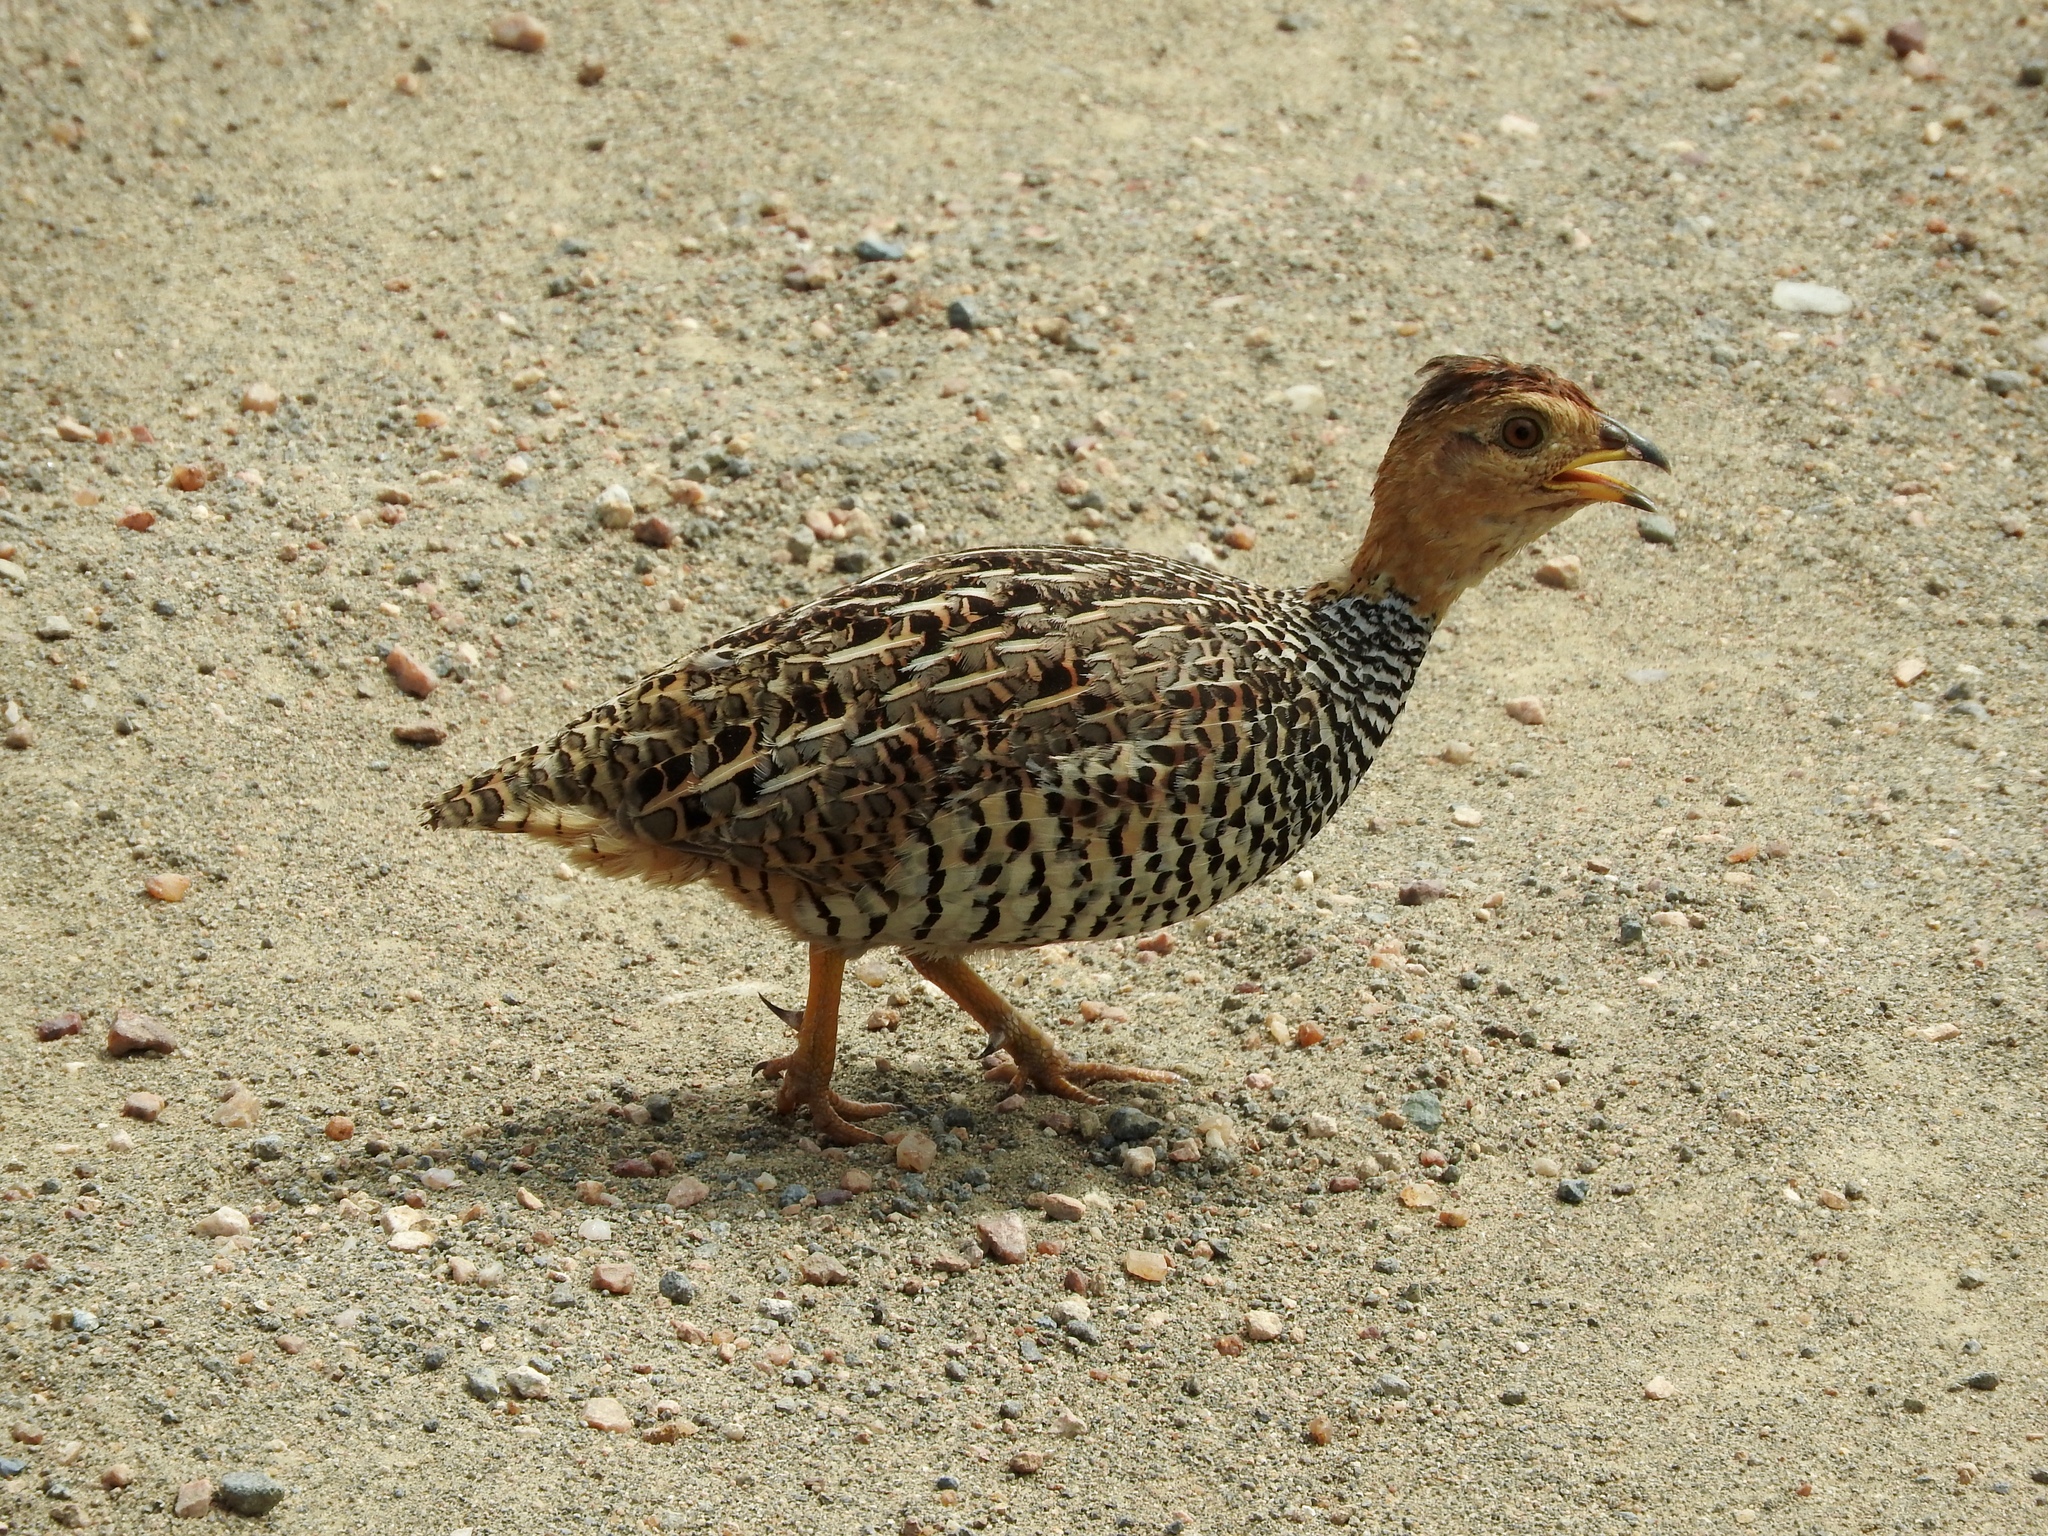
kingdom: Animalia
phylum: Chordata
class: Aves
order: Galliformes
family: Phasianidae
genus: Campocolinus
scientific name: Campocolinus coqui
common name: Coqui francolin
